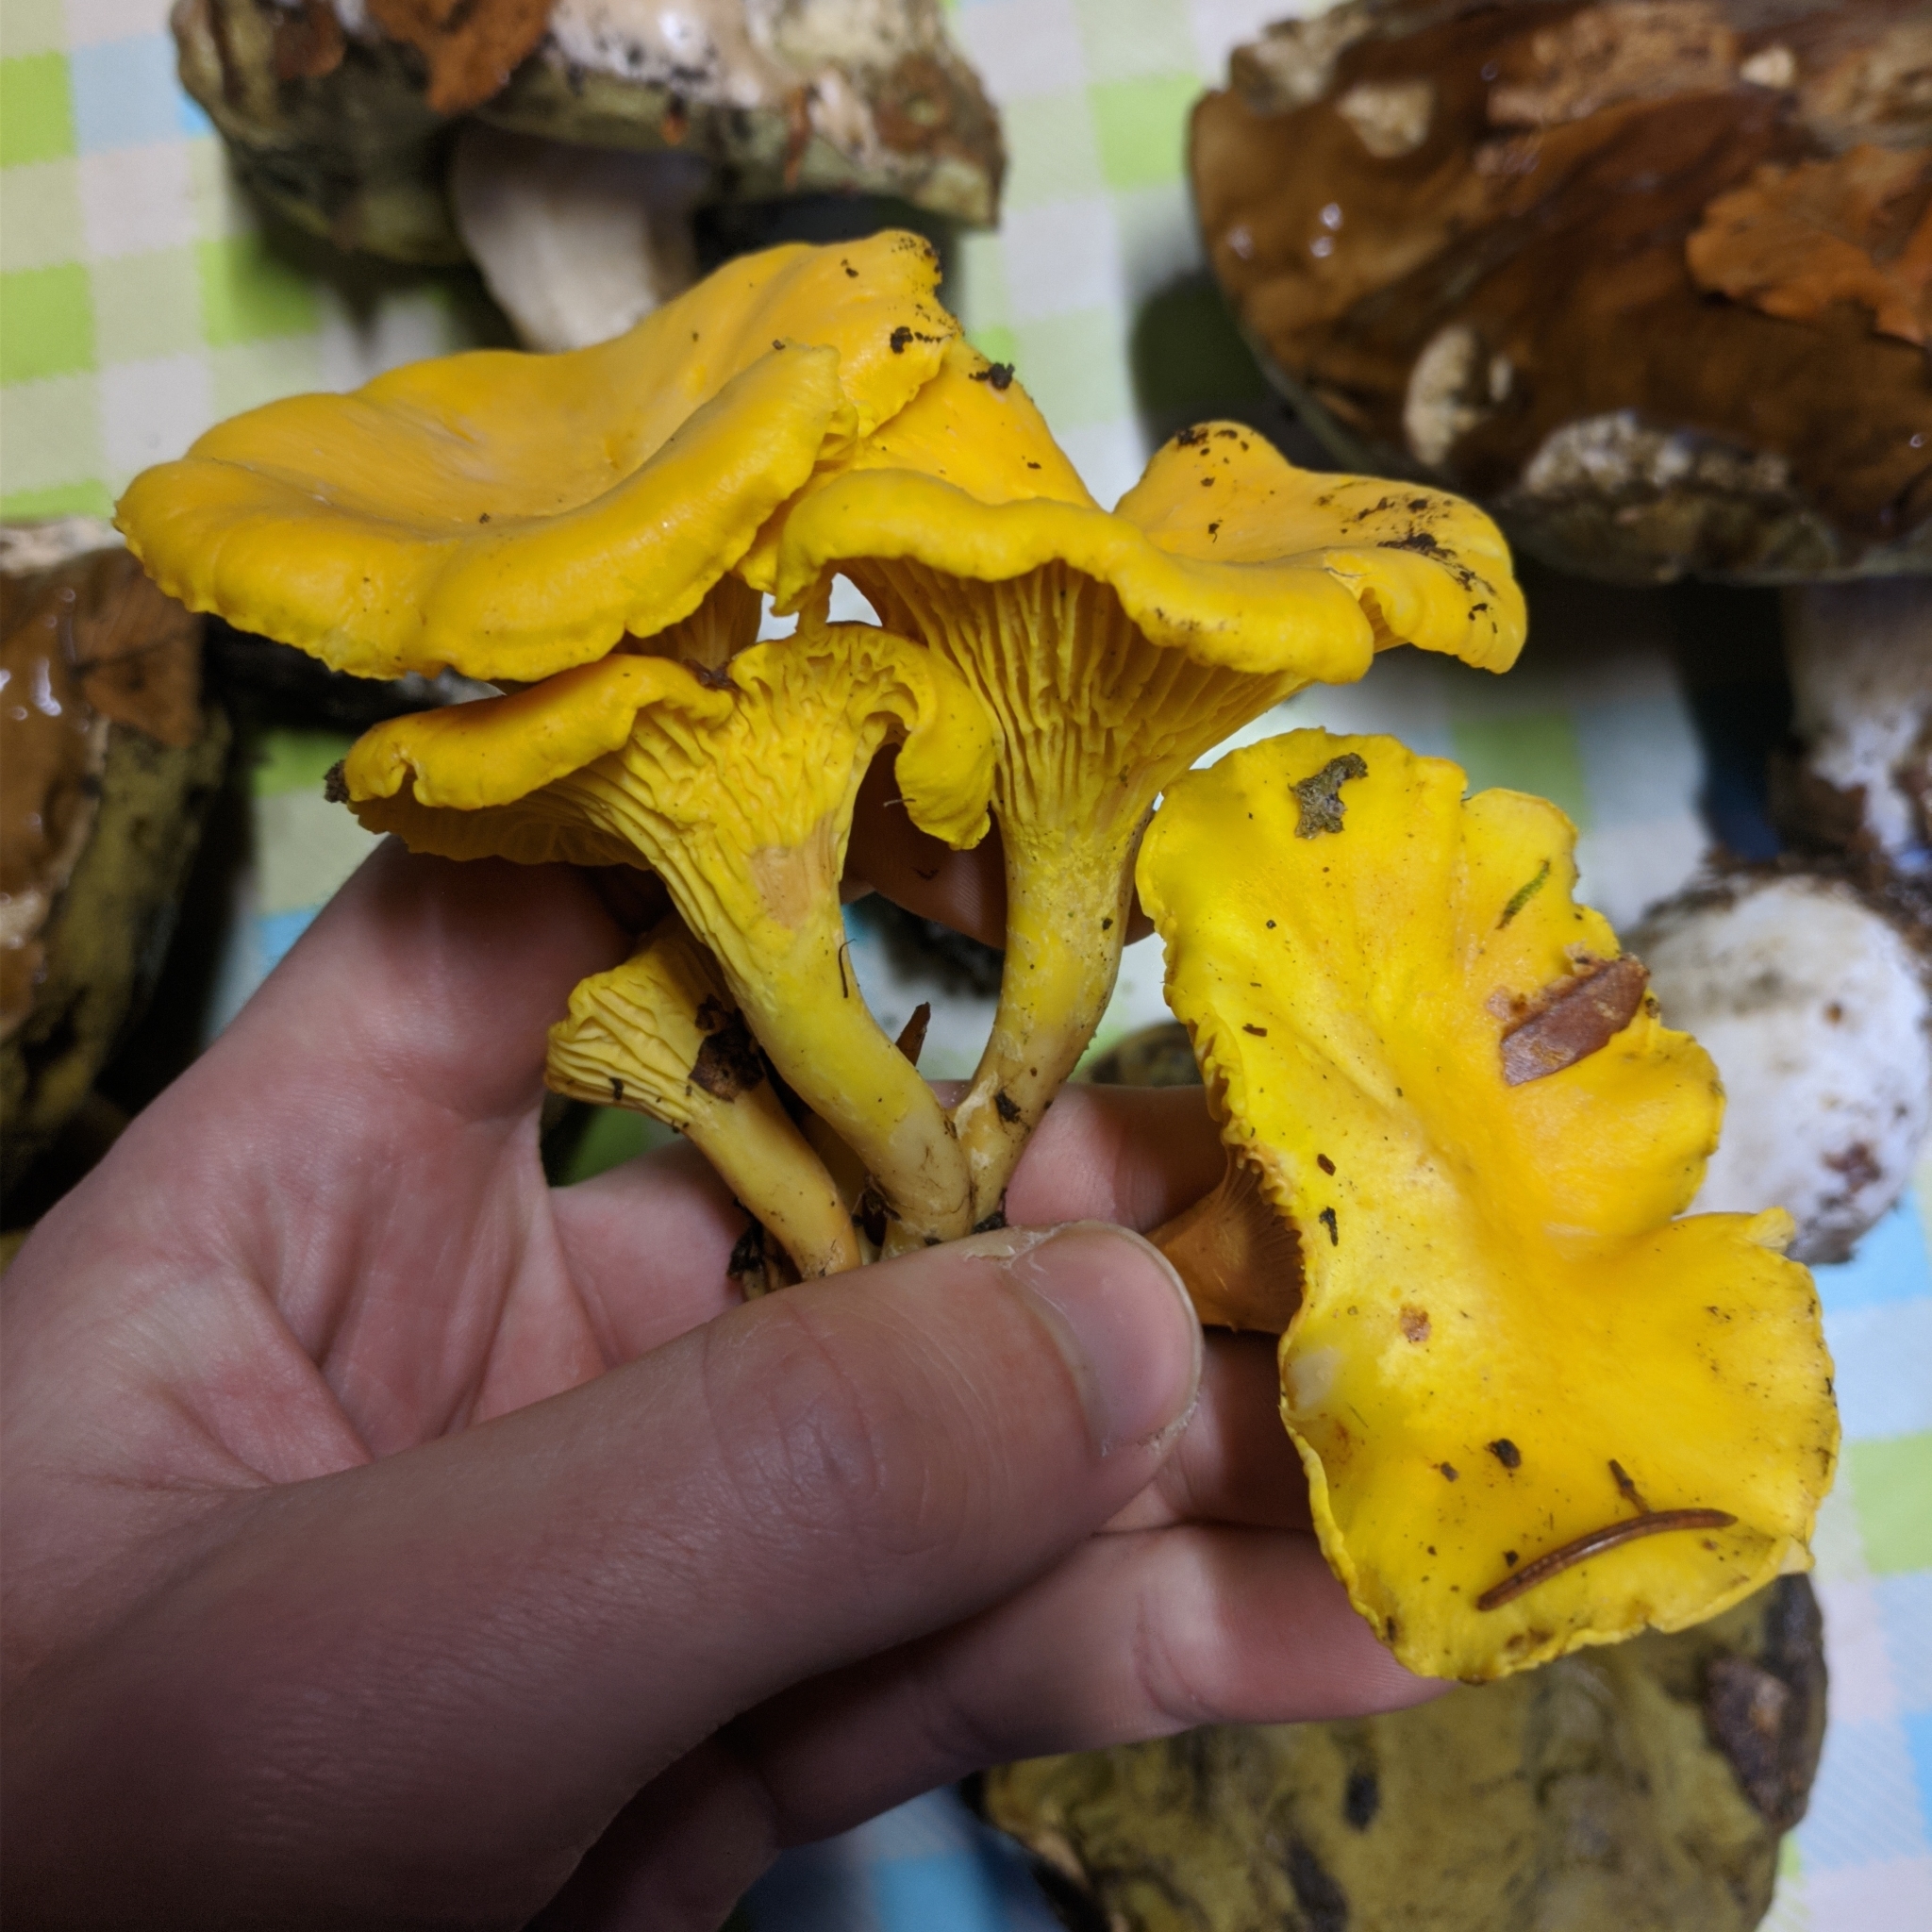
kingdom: Fungi
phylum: Basidiomycota
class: Agaricomycetes
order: Cantharellales
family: Hydnaceae
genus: Cantharellus
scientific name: Cantharellus cibarius
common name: Chanterelle
